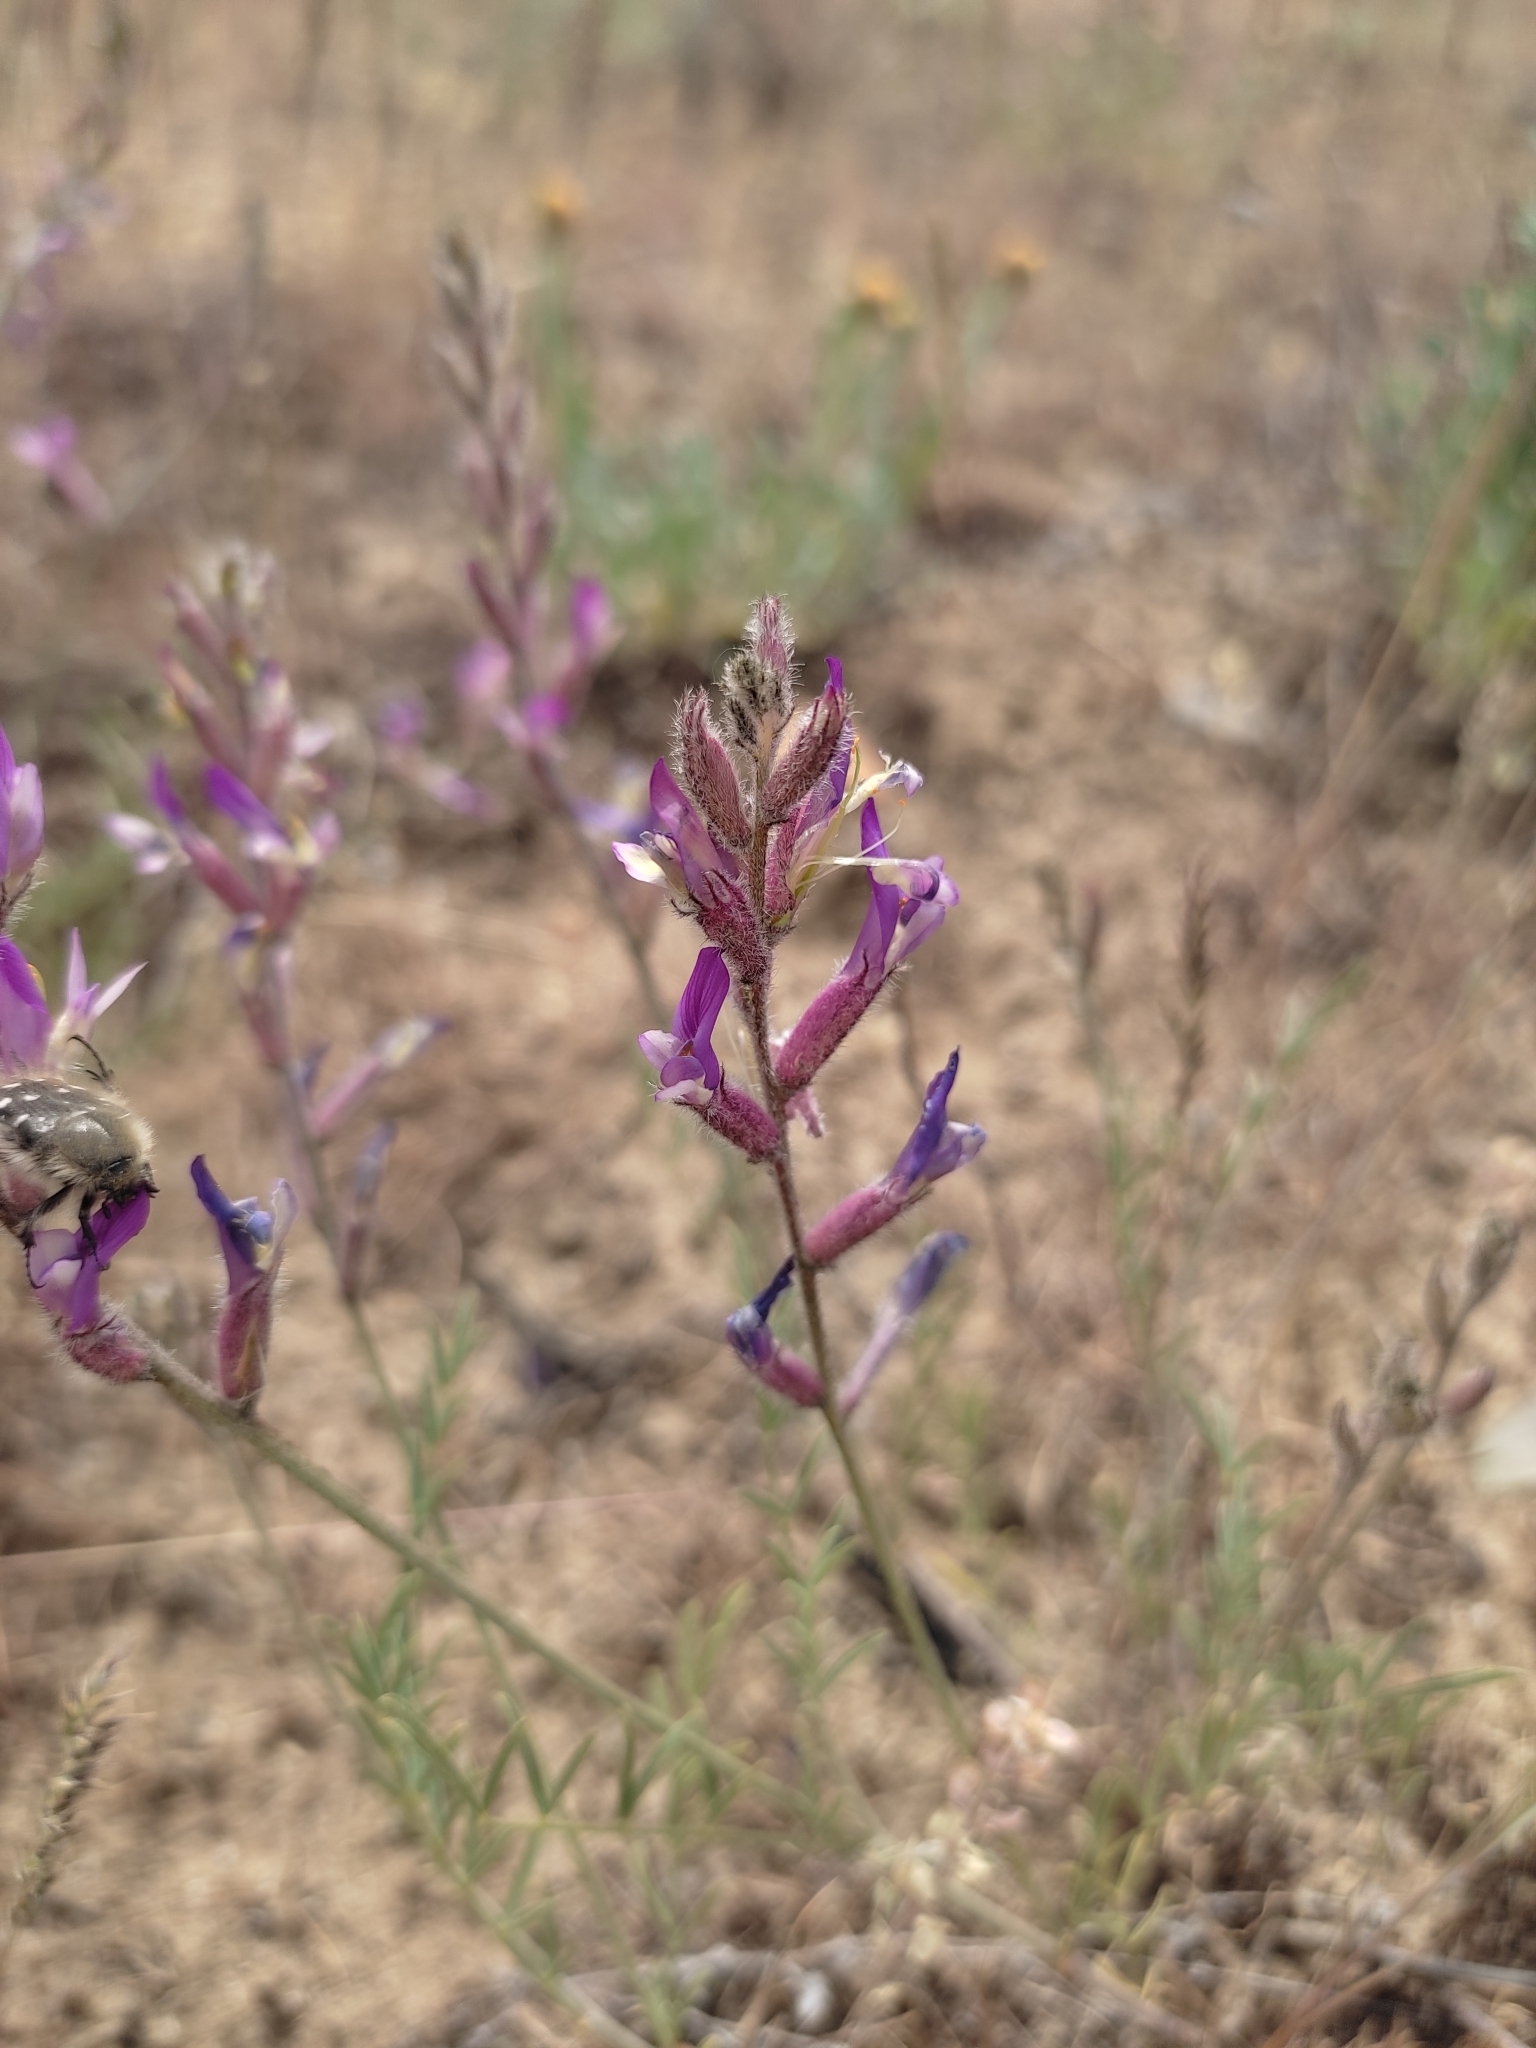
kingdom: Plantae
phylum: Tracheophyta
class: Magnoliopsida
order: Fabales
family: Fabaceae
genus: Astragalus
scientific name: Astragalus varius
